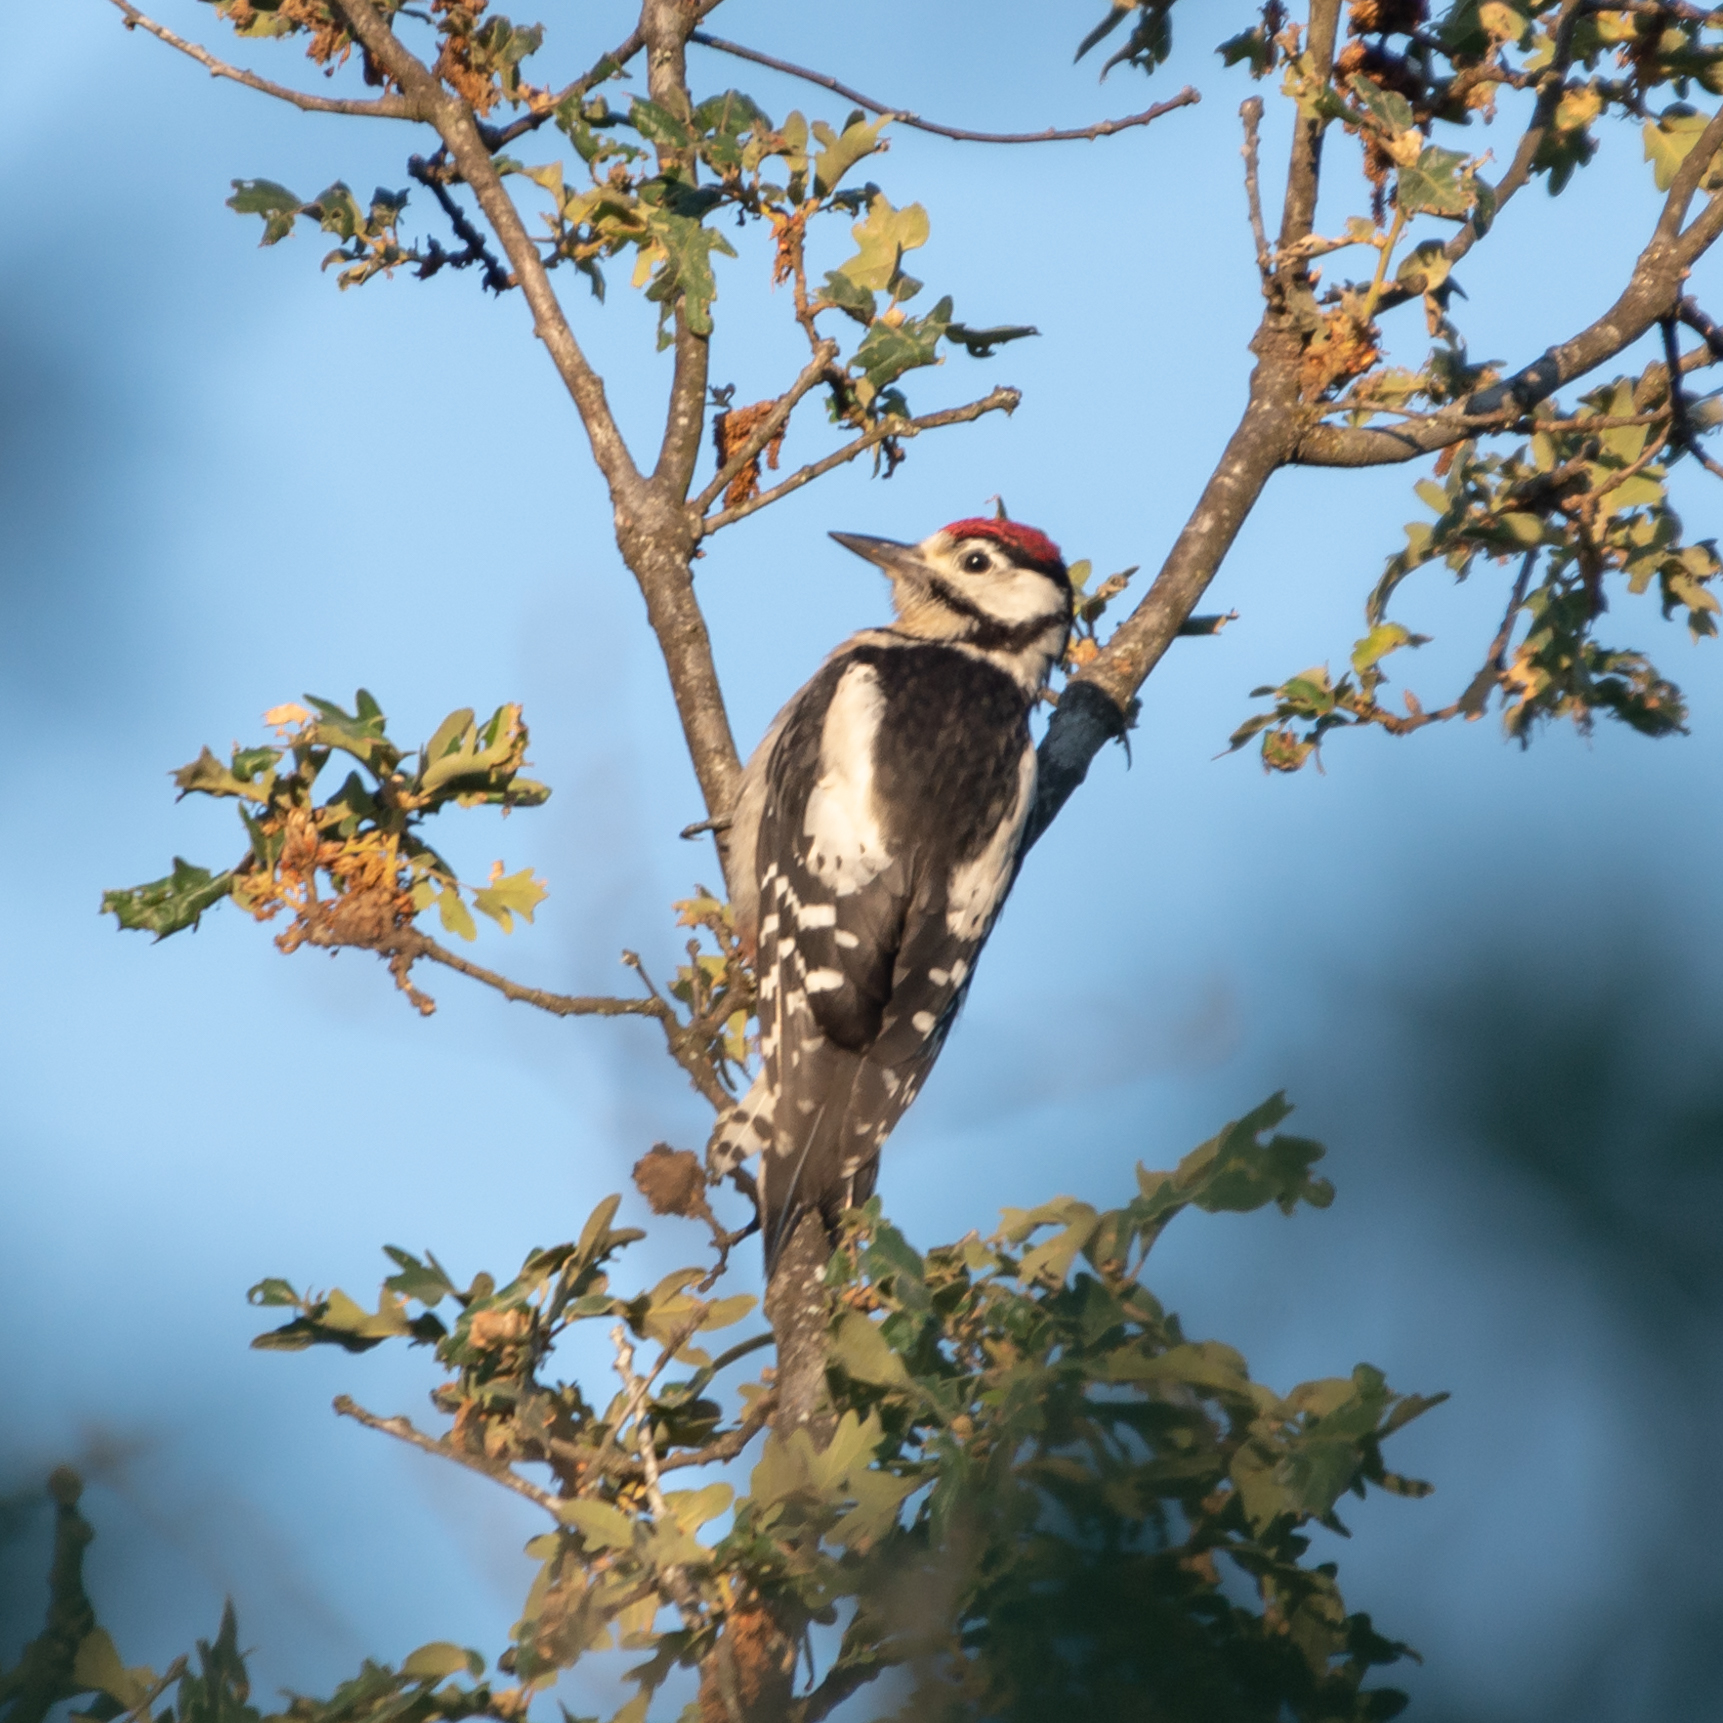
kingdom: Animalia
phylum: Chordata
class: Aves
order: Piciformes
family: Picidae
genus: Dendrocopos
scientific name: Dendrocopos major
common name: Great spotted woodpecker
